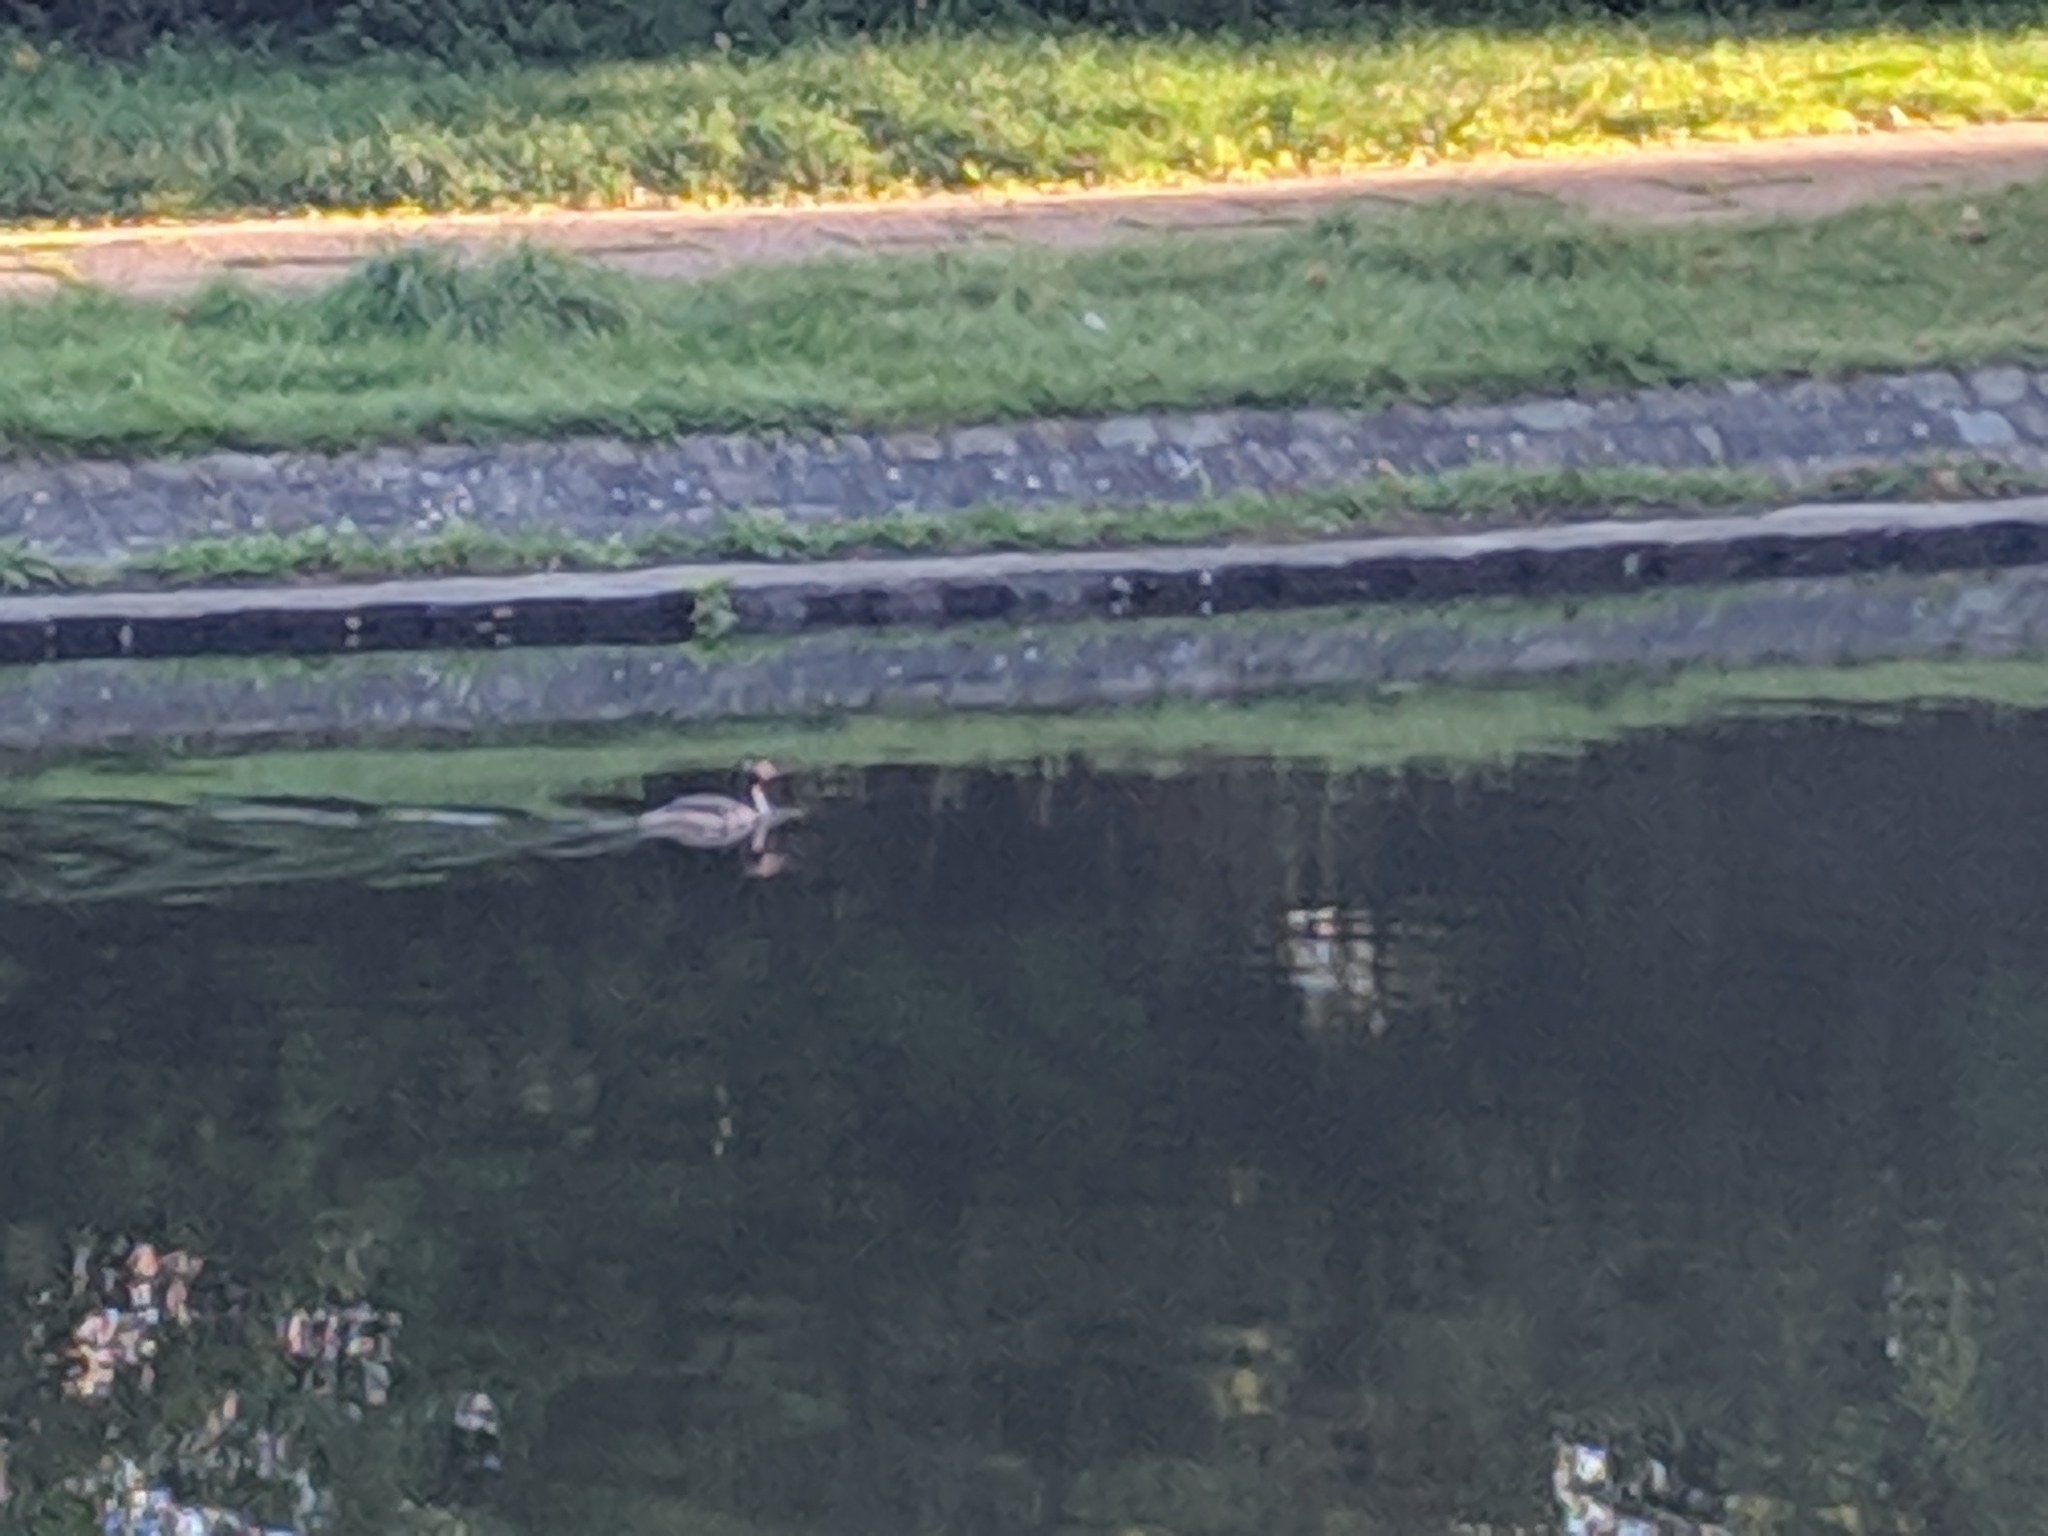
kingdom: Animalia
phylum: Chordata
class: Aves
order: Podicipediformes
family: Podicipedidae
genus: Podiceps
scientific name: Podiceps cristatus
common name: Great crested grebe
